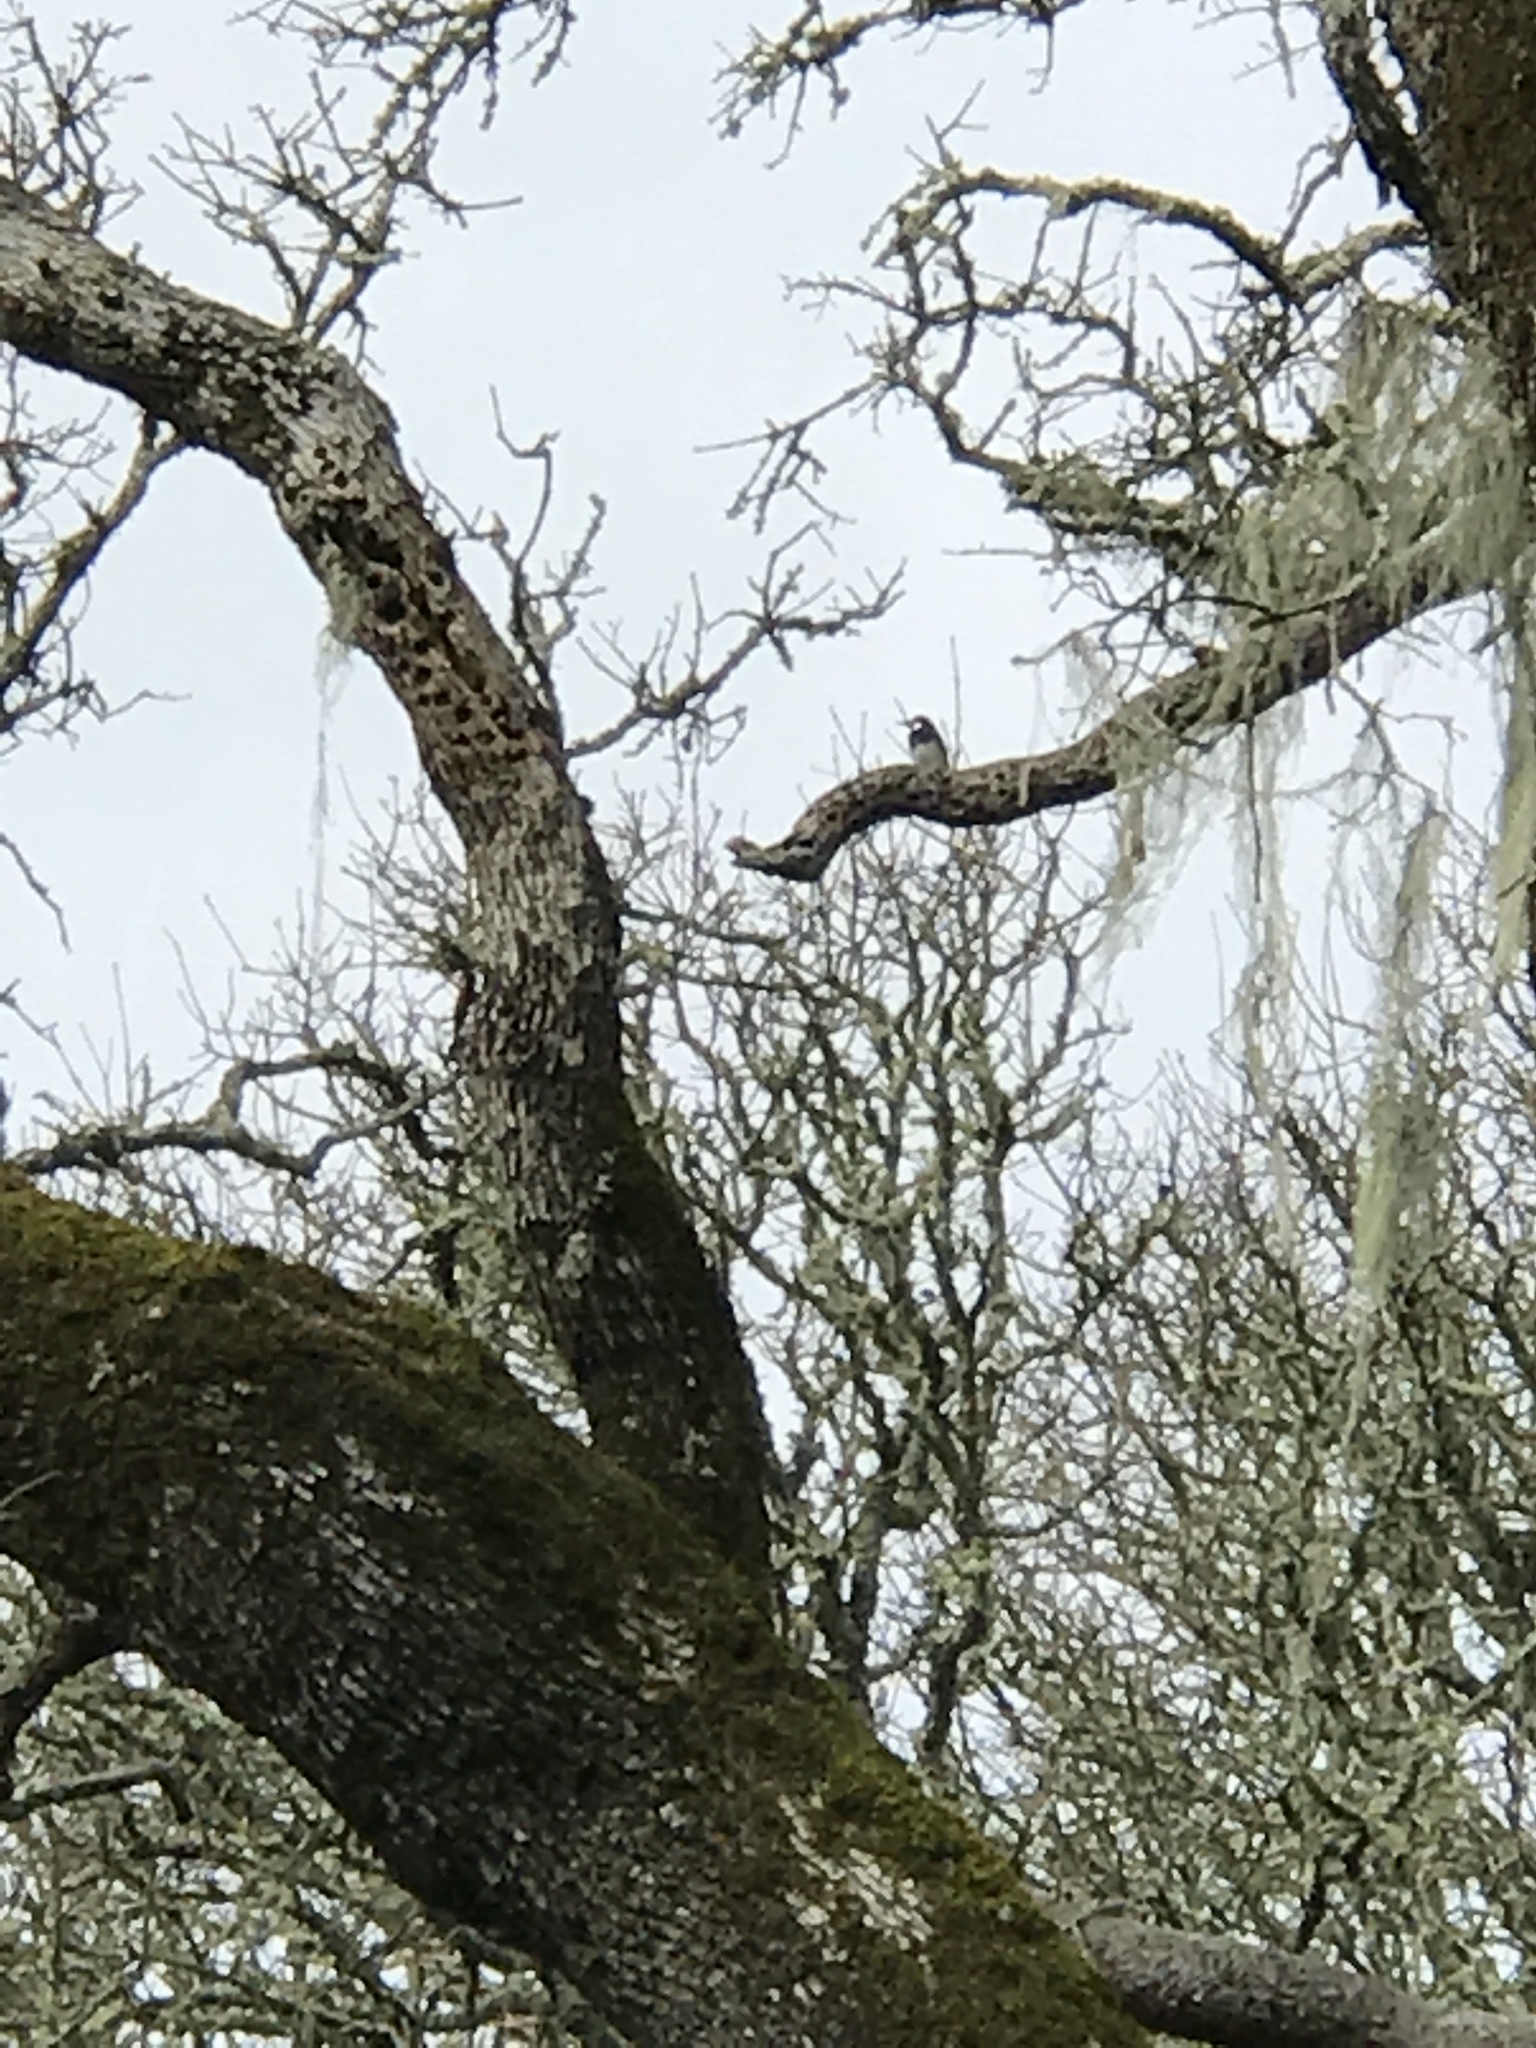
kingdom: Animalia
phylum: Chordata
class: Aves
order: Piciformes
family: Picidae
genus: Melanerpes
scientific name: Melanerpes formicivorus
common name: Acorn woodpecker
